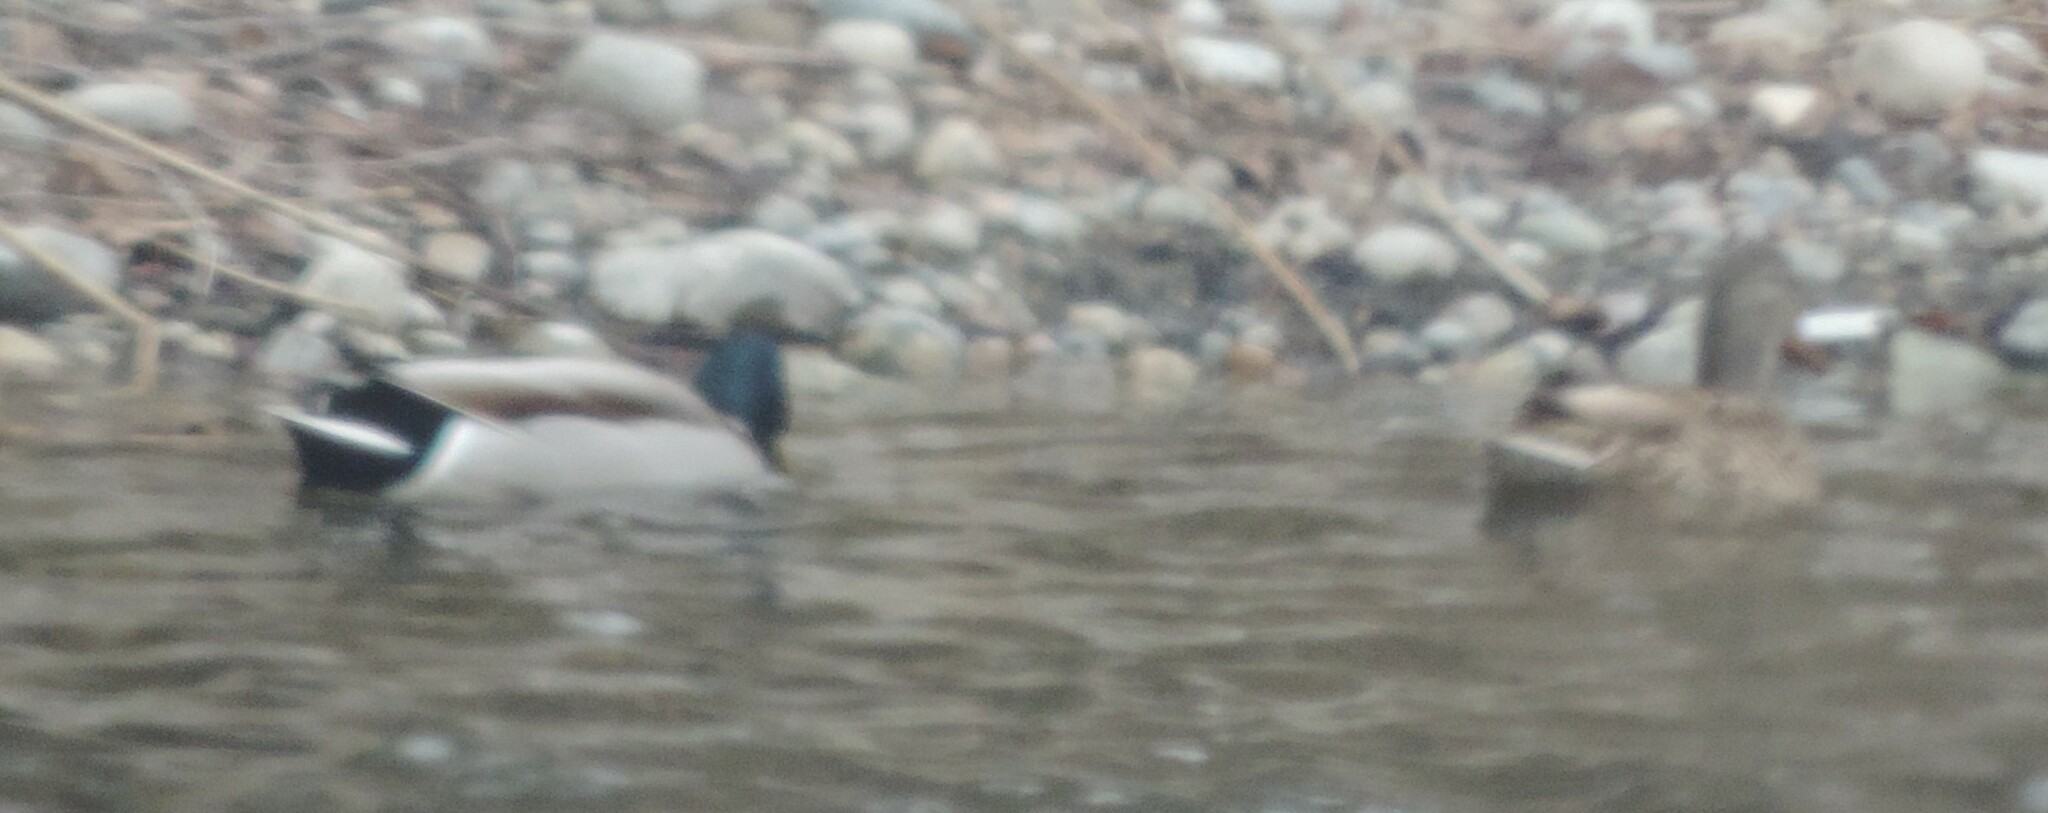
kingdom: Animalia
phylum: Chordata
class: Aves
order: Anseriformes
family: Anatidae
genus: Anas
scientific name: Anas platyrhynchos
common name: Mallard
